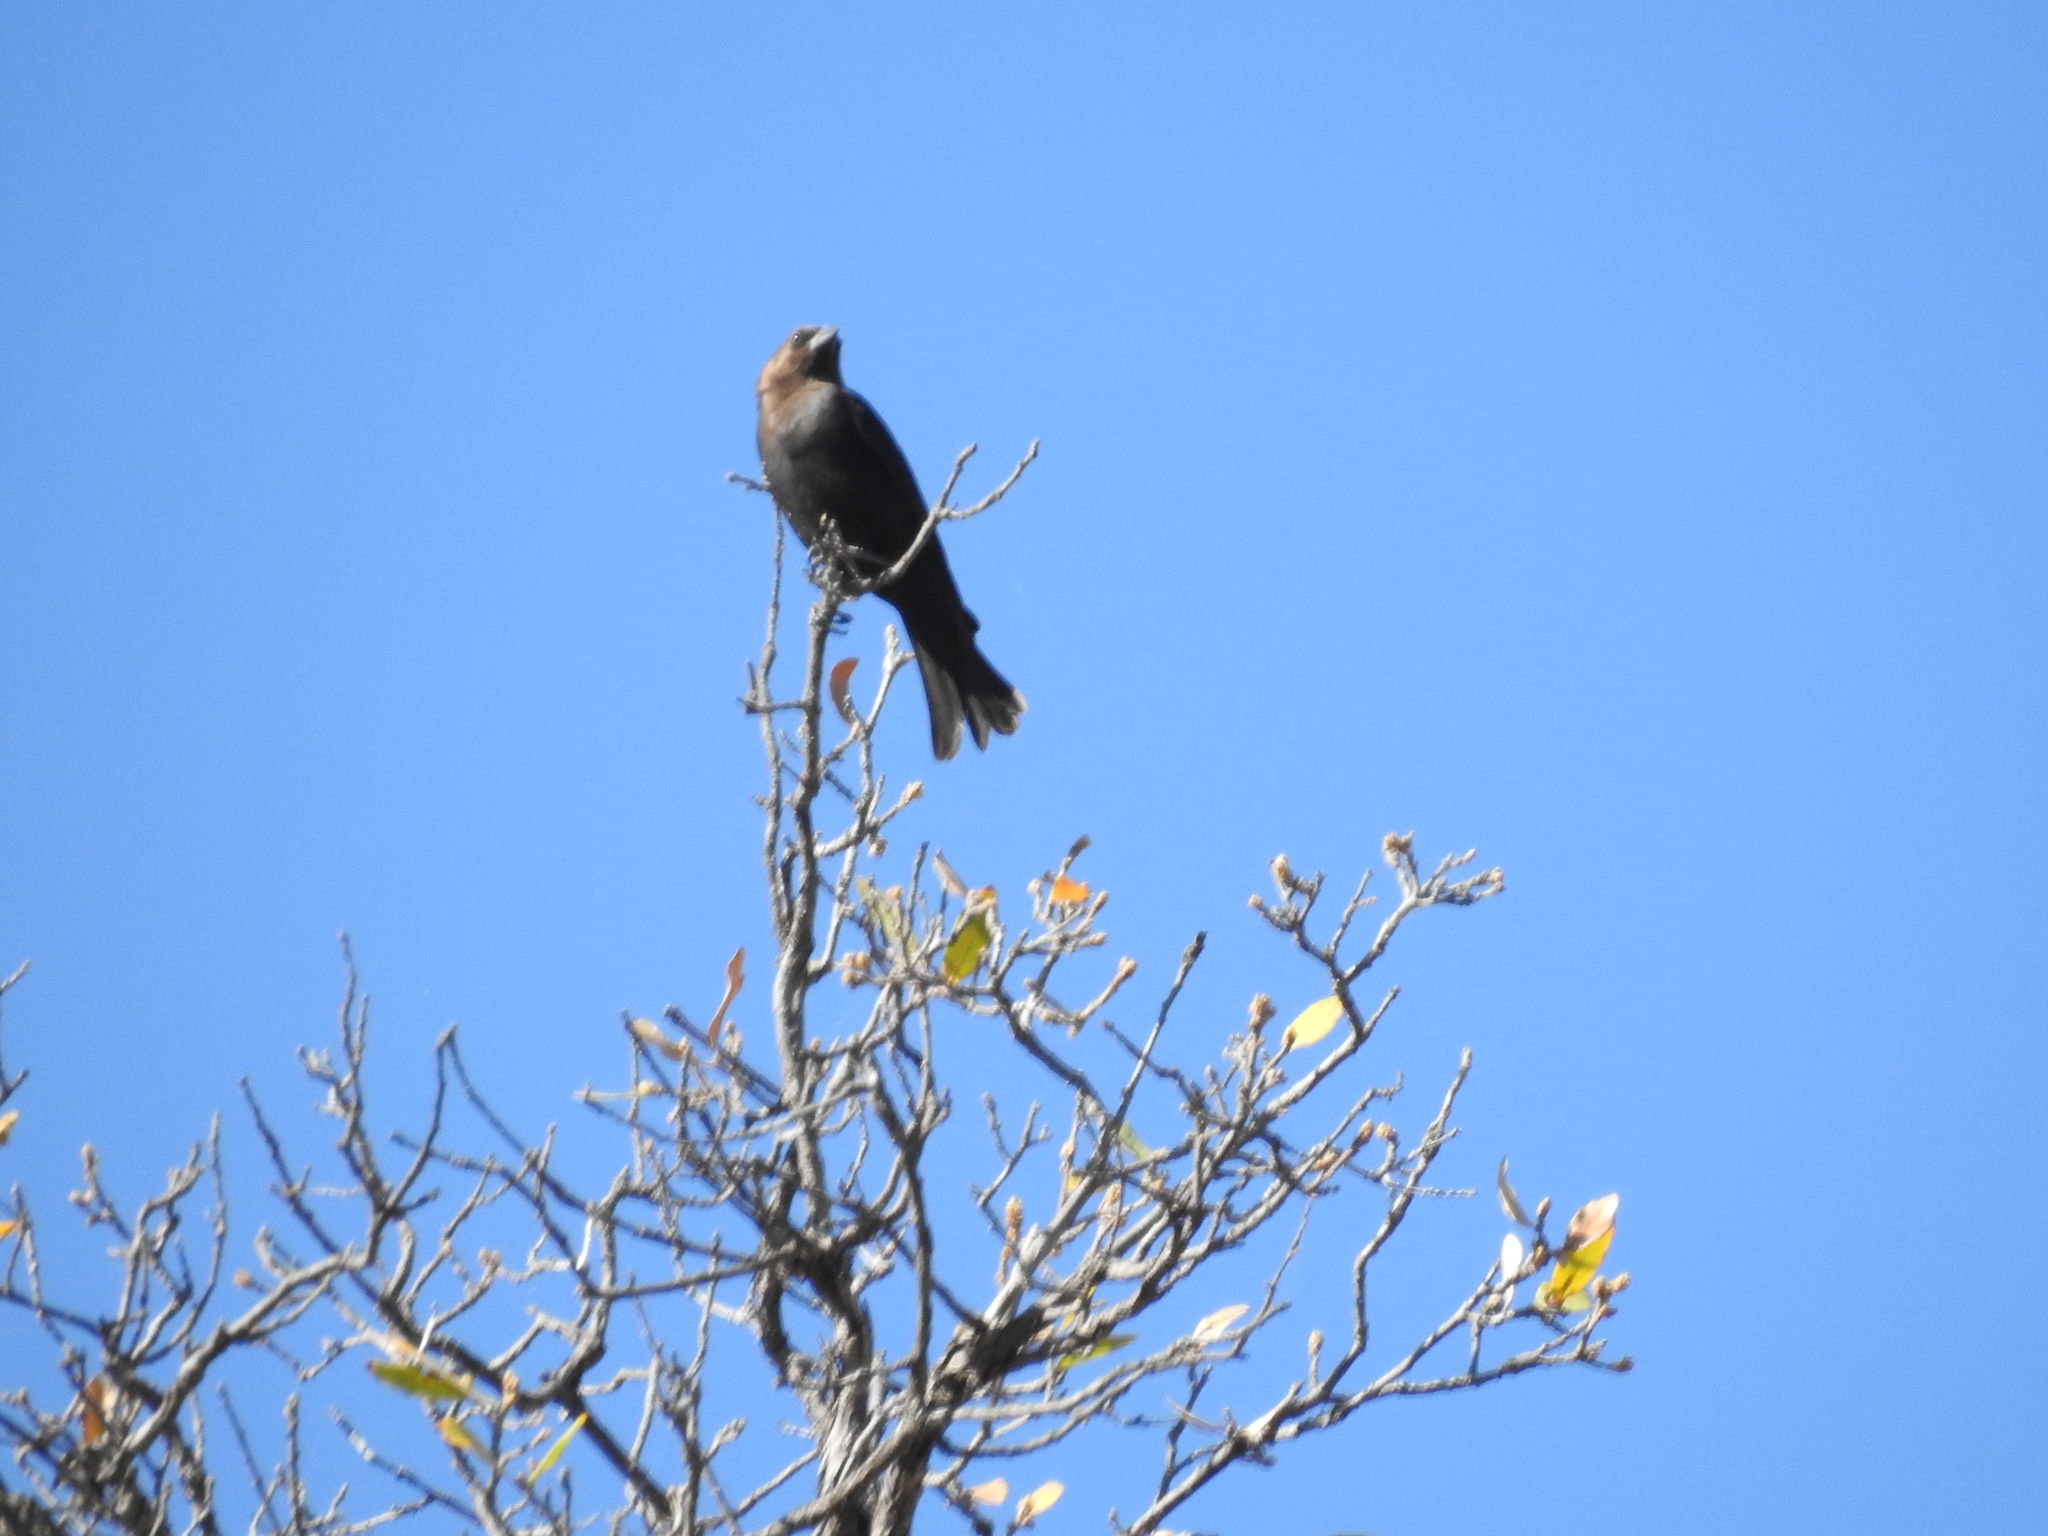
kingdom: Animalia
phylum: Chordata
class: Aves
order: Passeriformes
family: Icteridae
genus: Molothrus
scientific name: Molothrus ater
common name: Brown-headed cowbird
